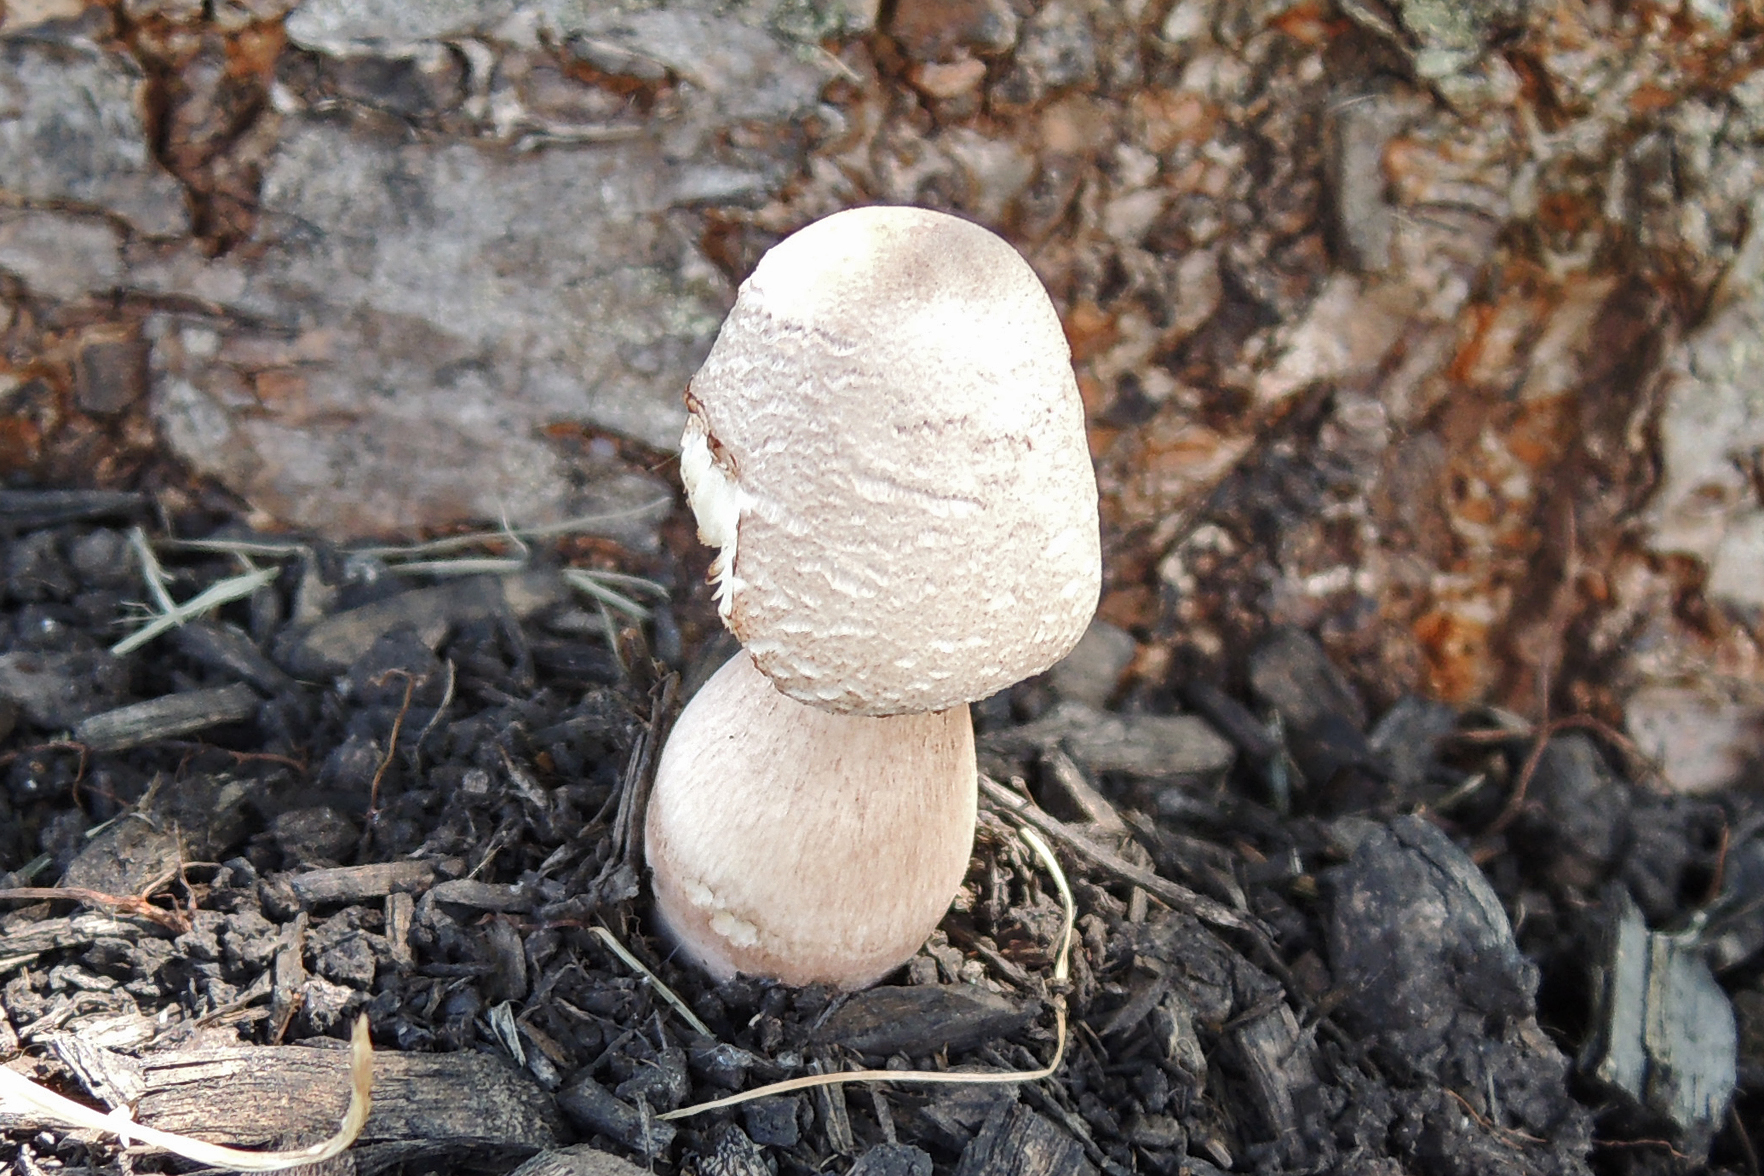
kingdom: Fungi
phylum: Basidiomycota
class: Agaricomycetes
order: Agaricales
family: Agaricaceae
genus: Leucoagaricus
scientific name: Leucoagaricus americanus
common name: Reddening lepiota
